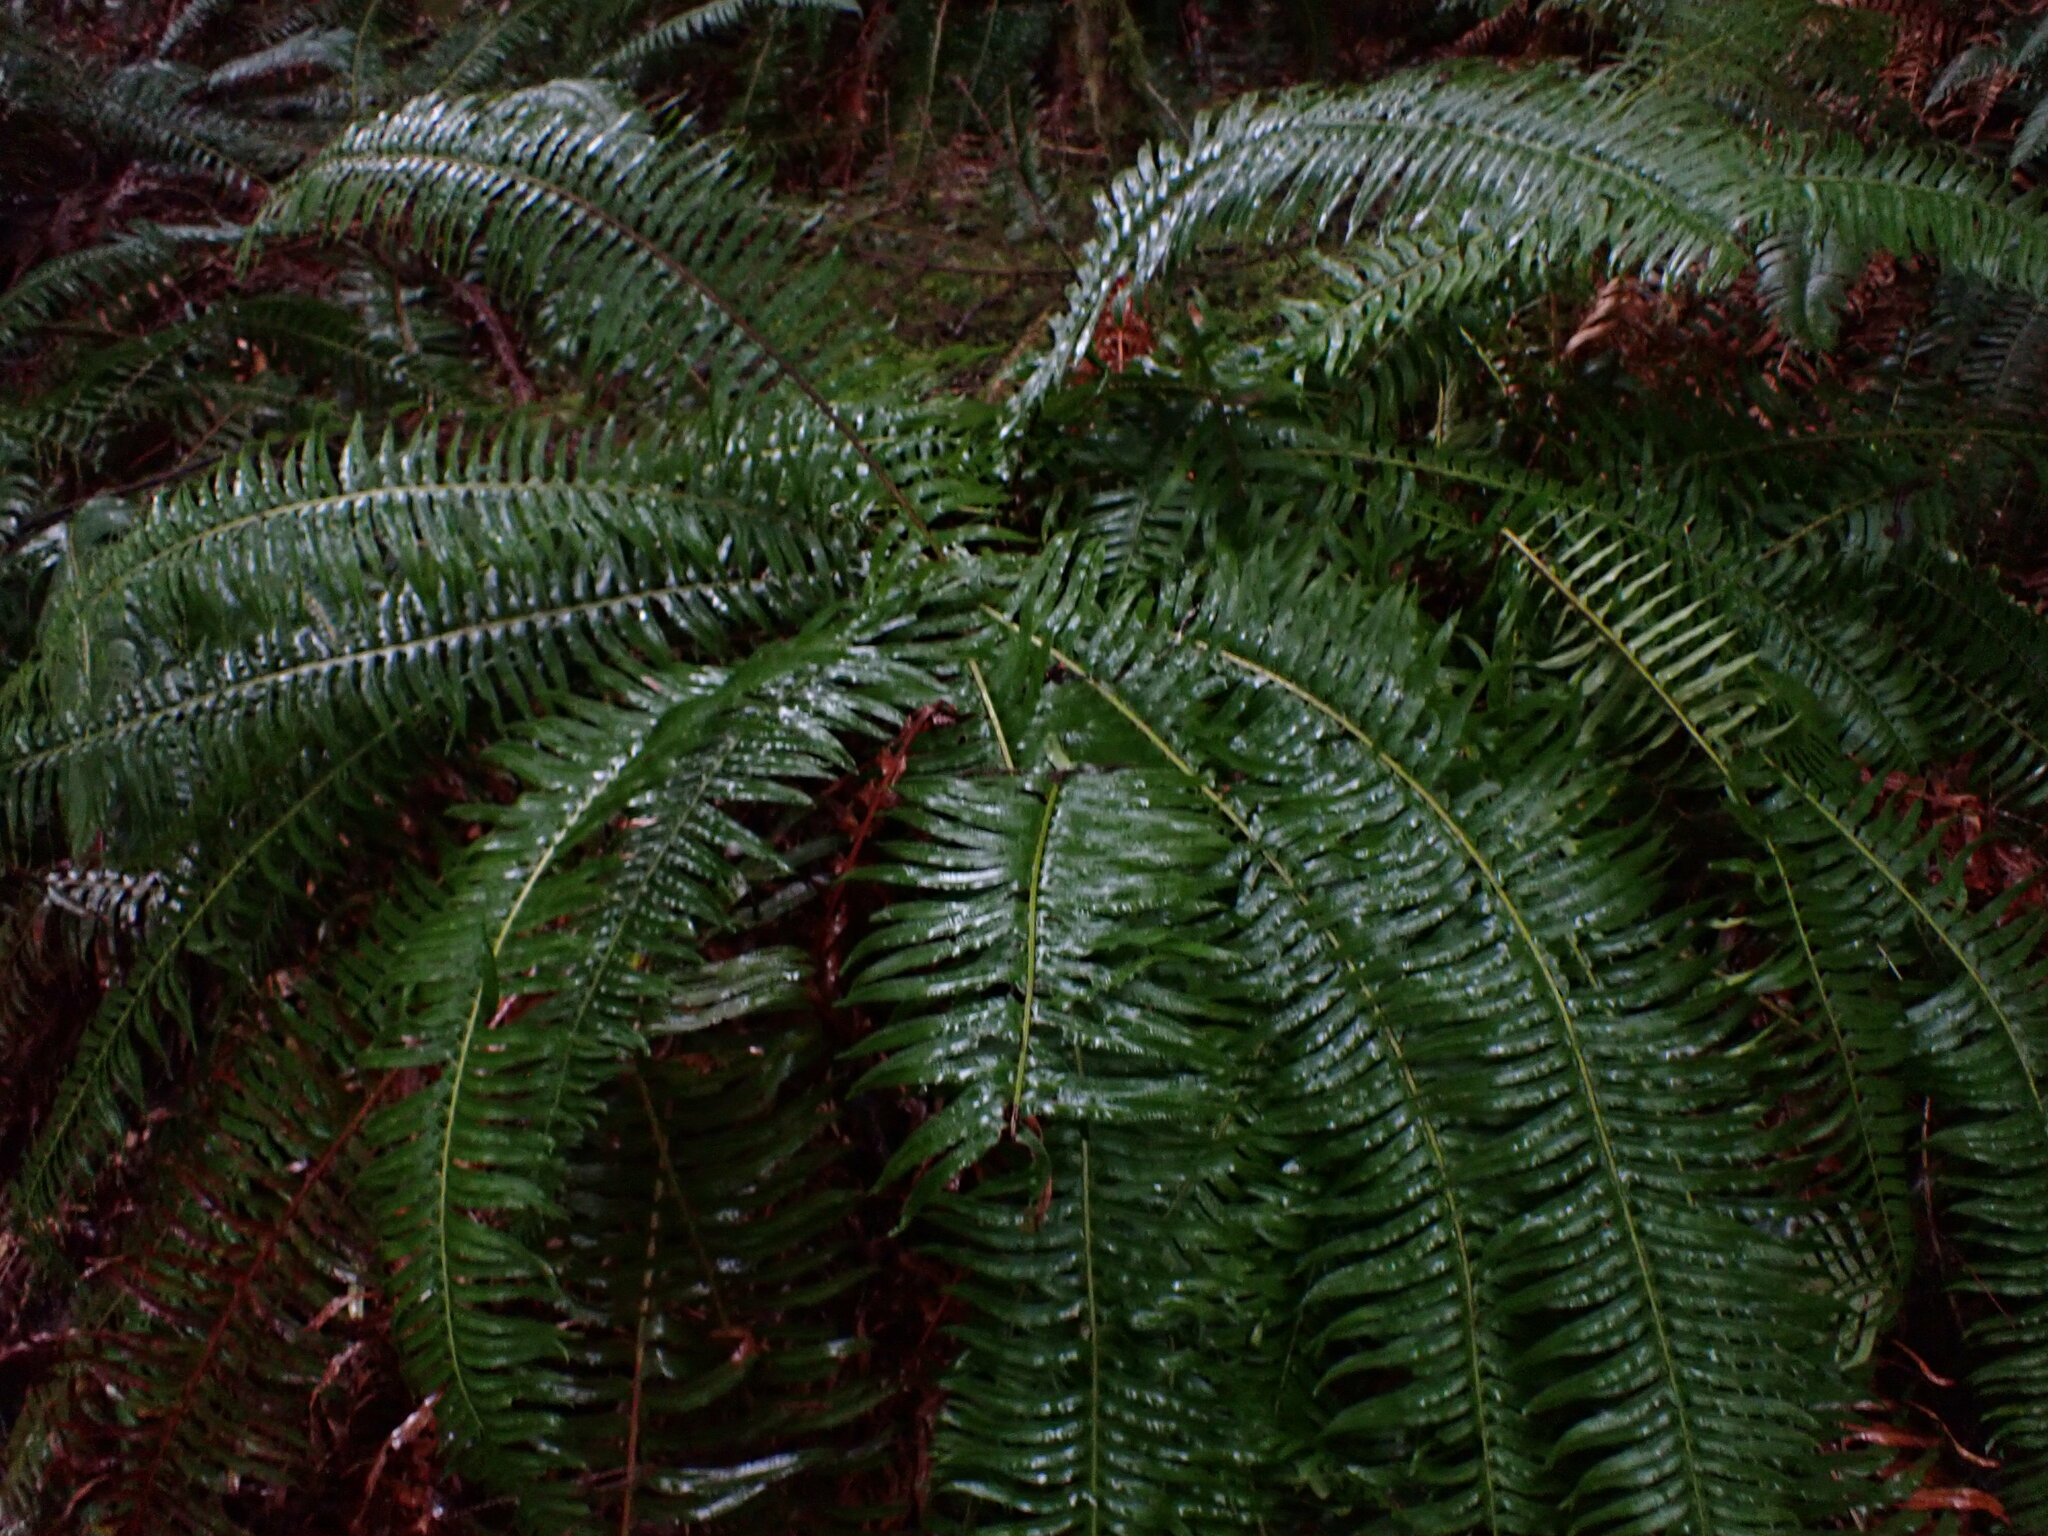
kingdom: Plantae
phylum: Tracheophyta
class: Polypodiopsida
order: Polypodiales
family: Dryopteridaceae
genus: Polystichum
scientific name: Polystichum munitum
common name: Western sword-fern
